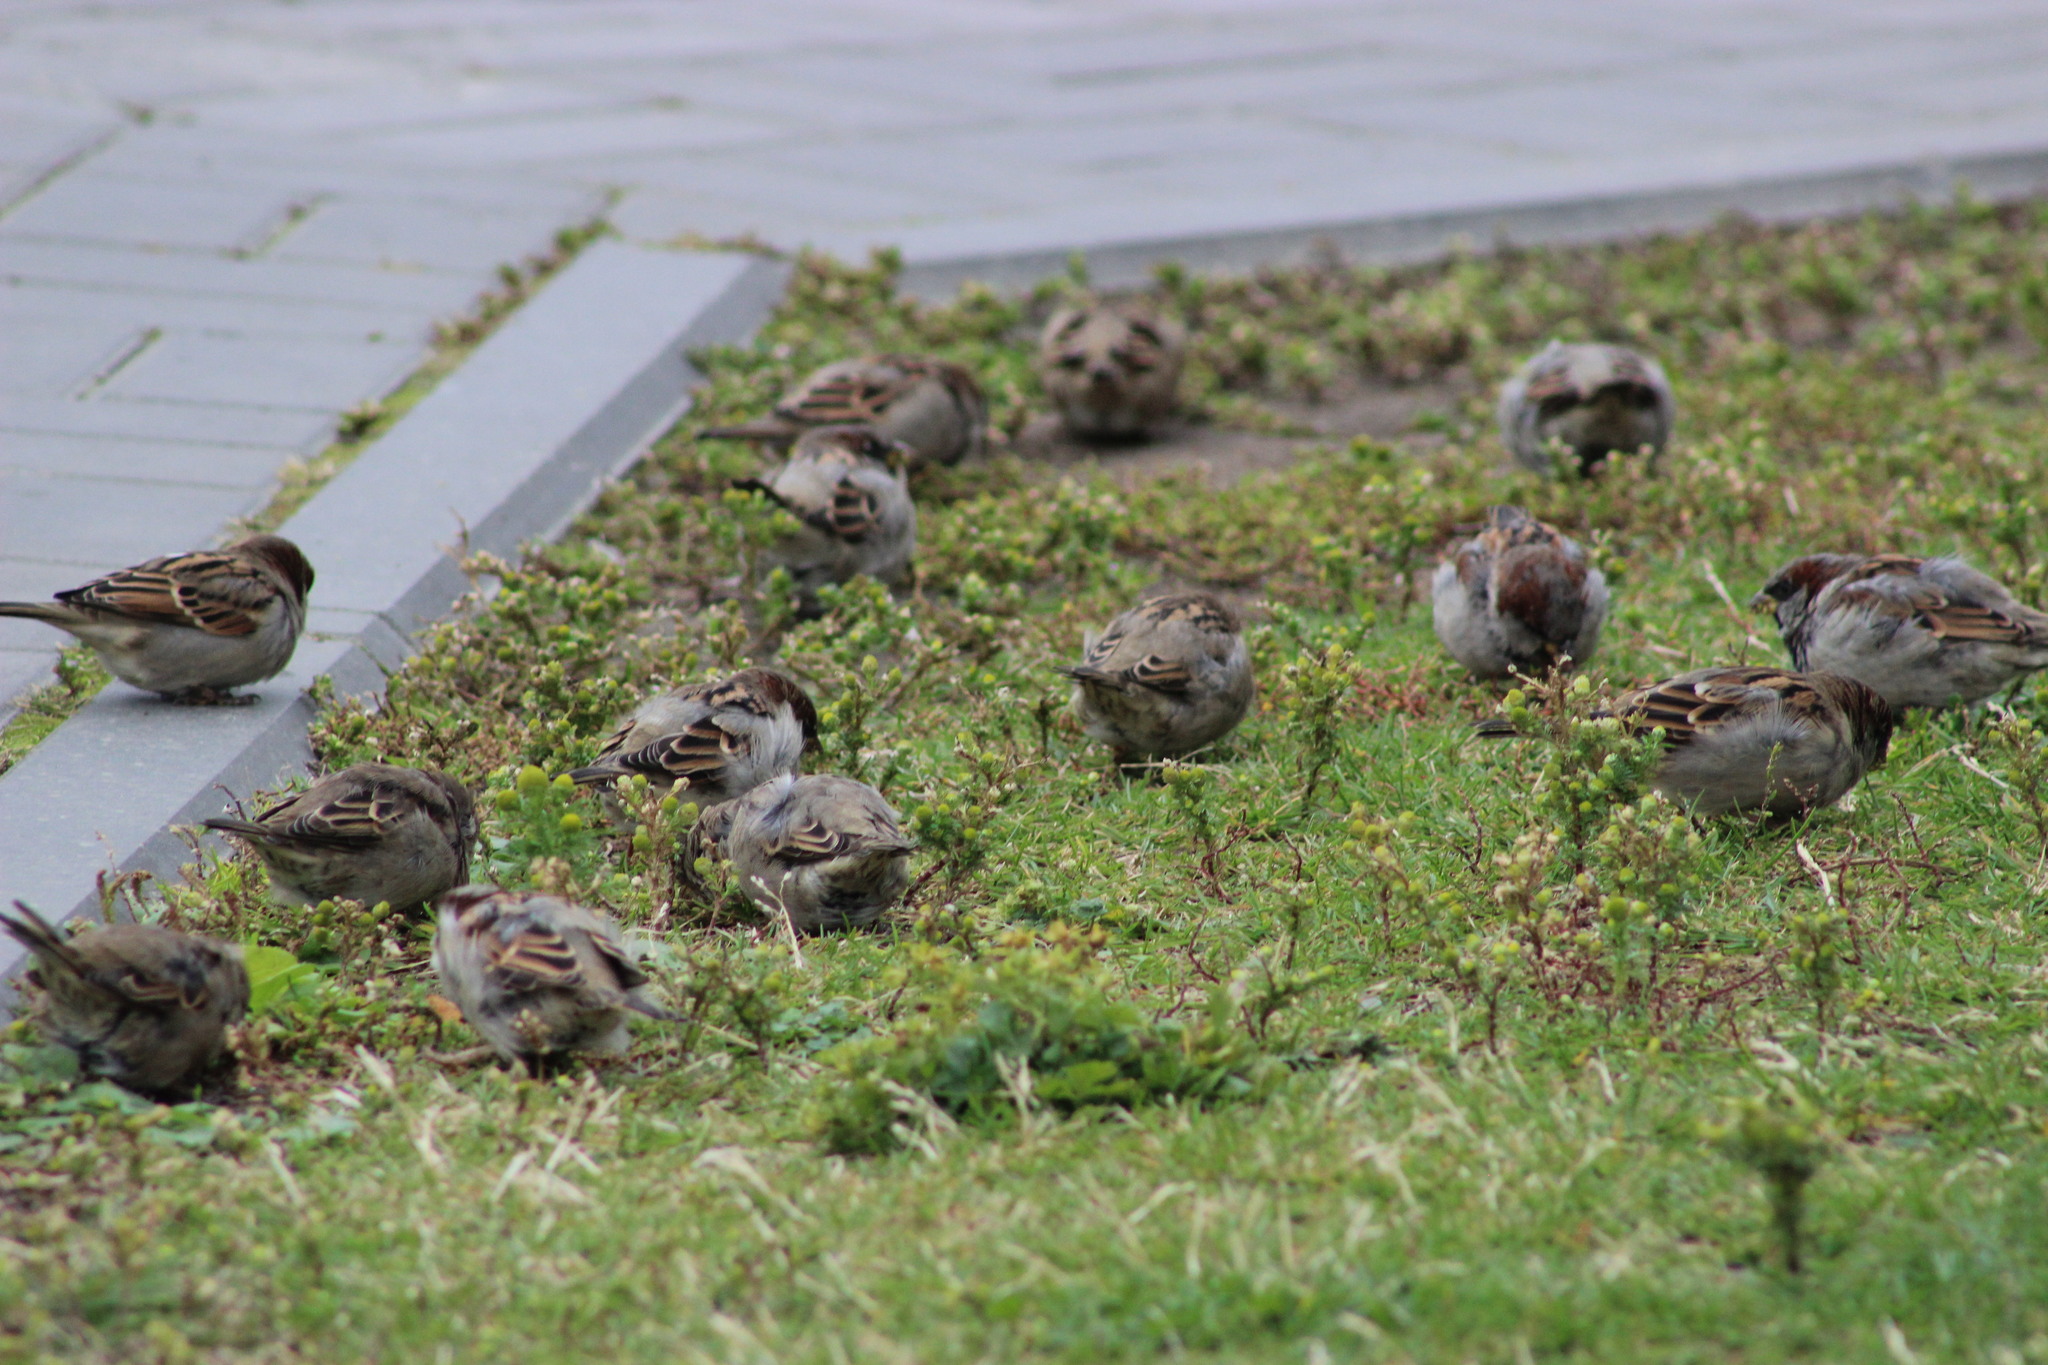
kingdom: Animalia
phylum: Chordata
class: Aves
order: Passeriformes
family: Passeridae
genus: Passer
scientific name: Passer domesticus
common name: House sparrow
